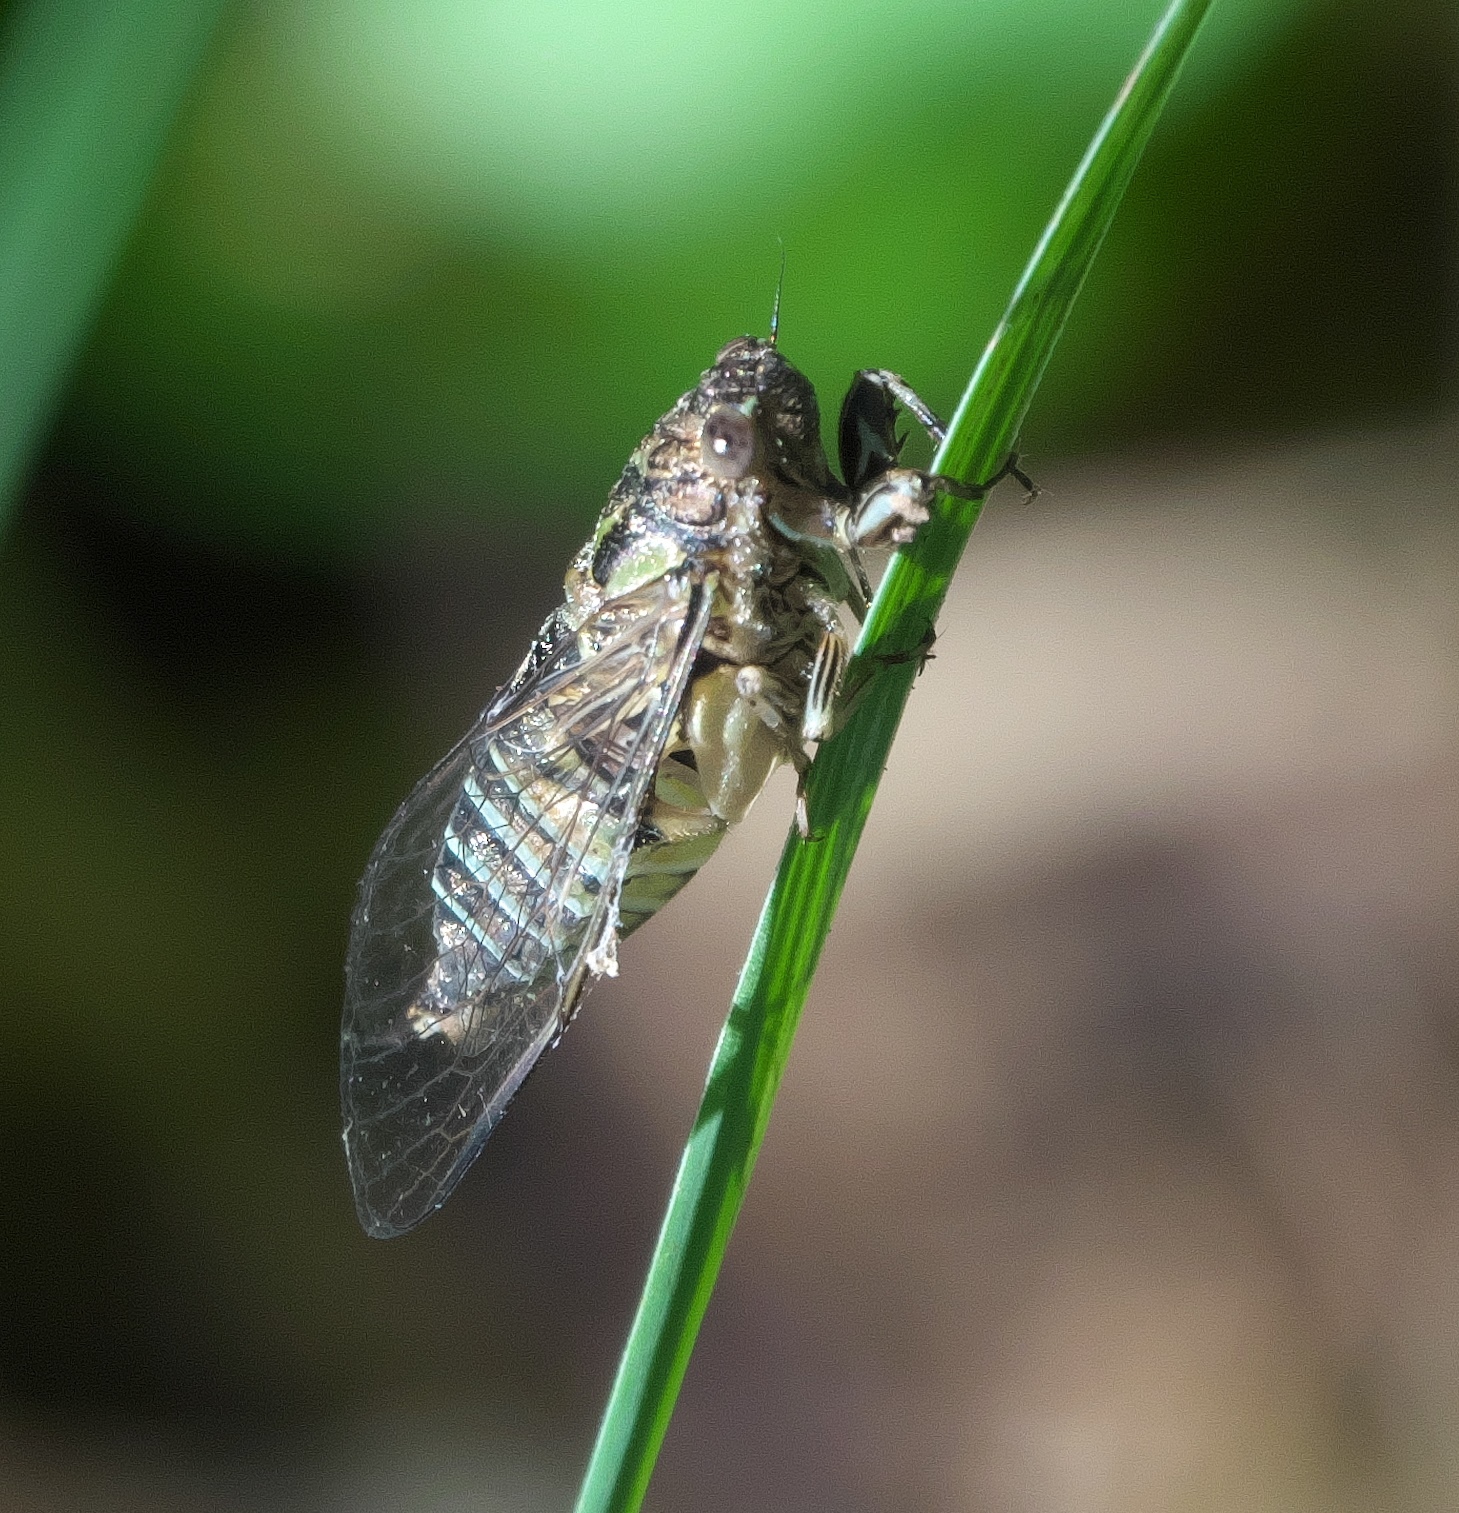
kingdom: Animalia
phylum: Arthropoda
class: Insecta
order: Hemiptera
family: Cicadidae
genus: Physeema
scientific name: Physeema quadricincta
